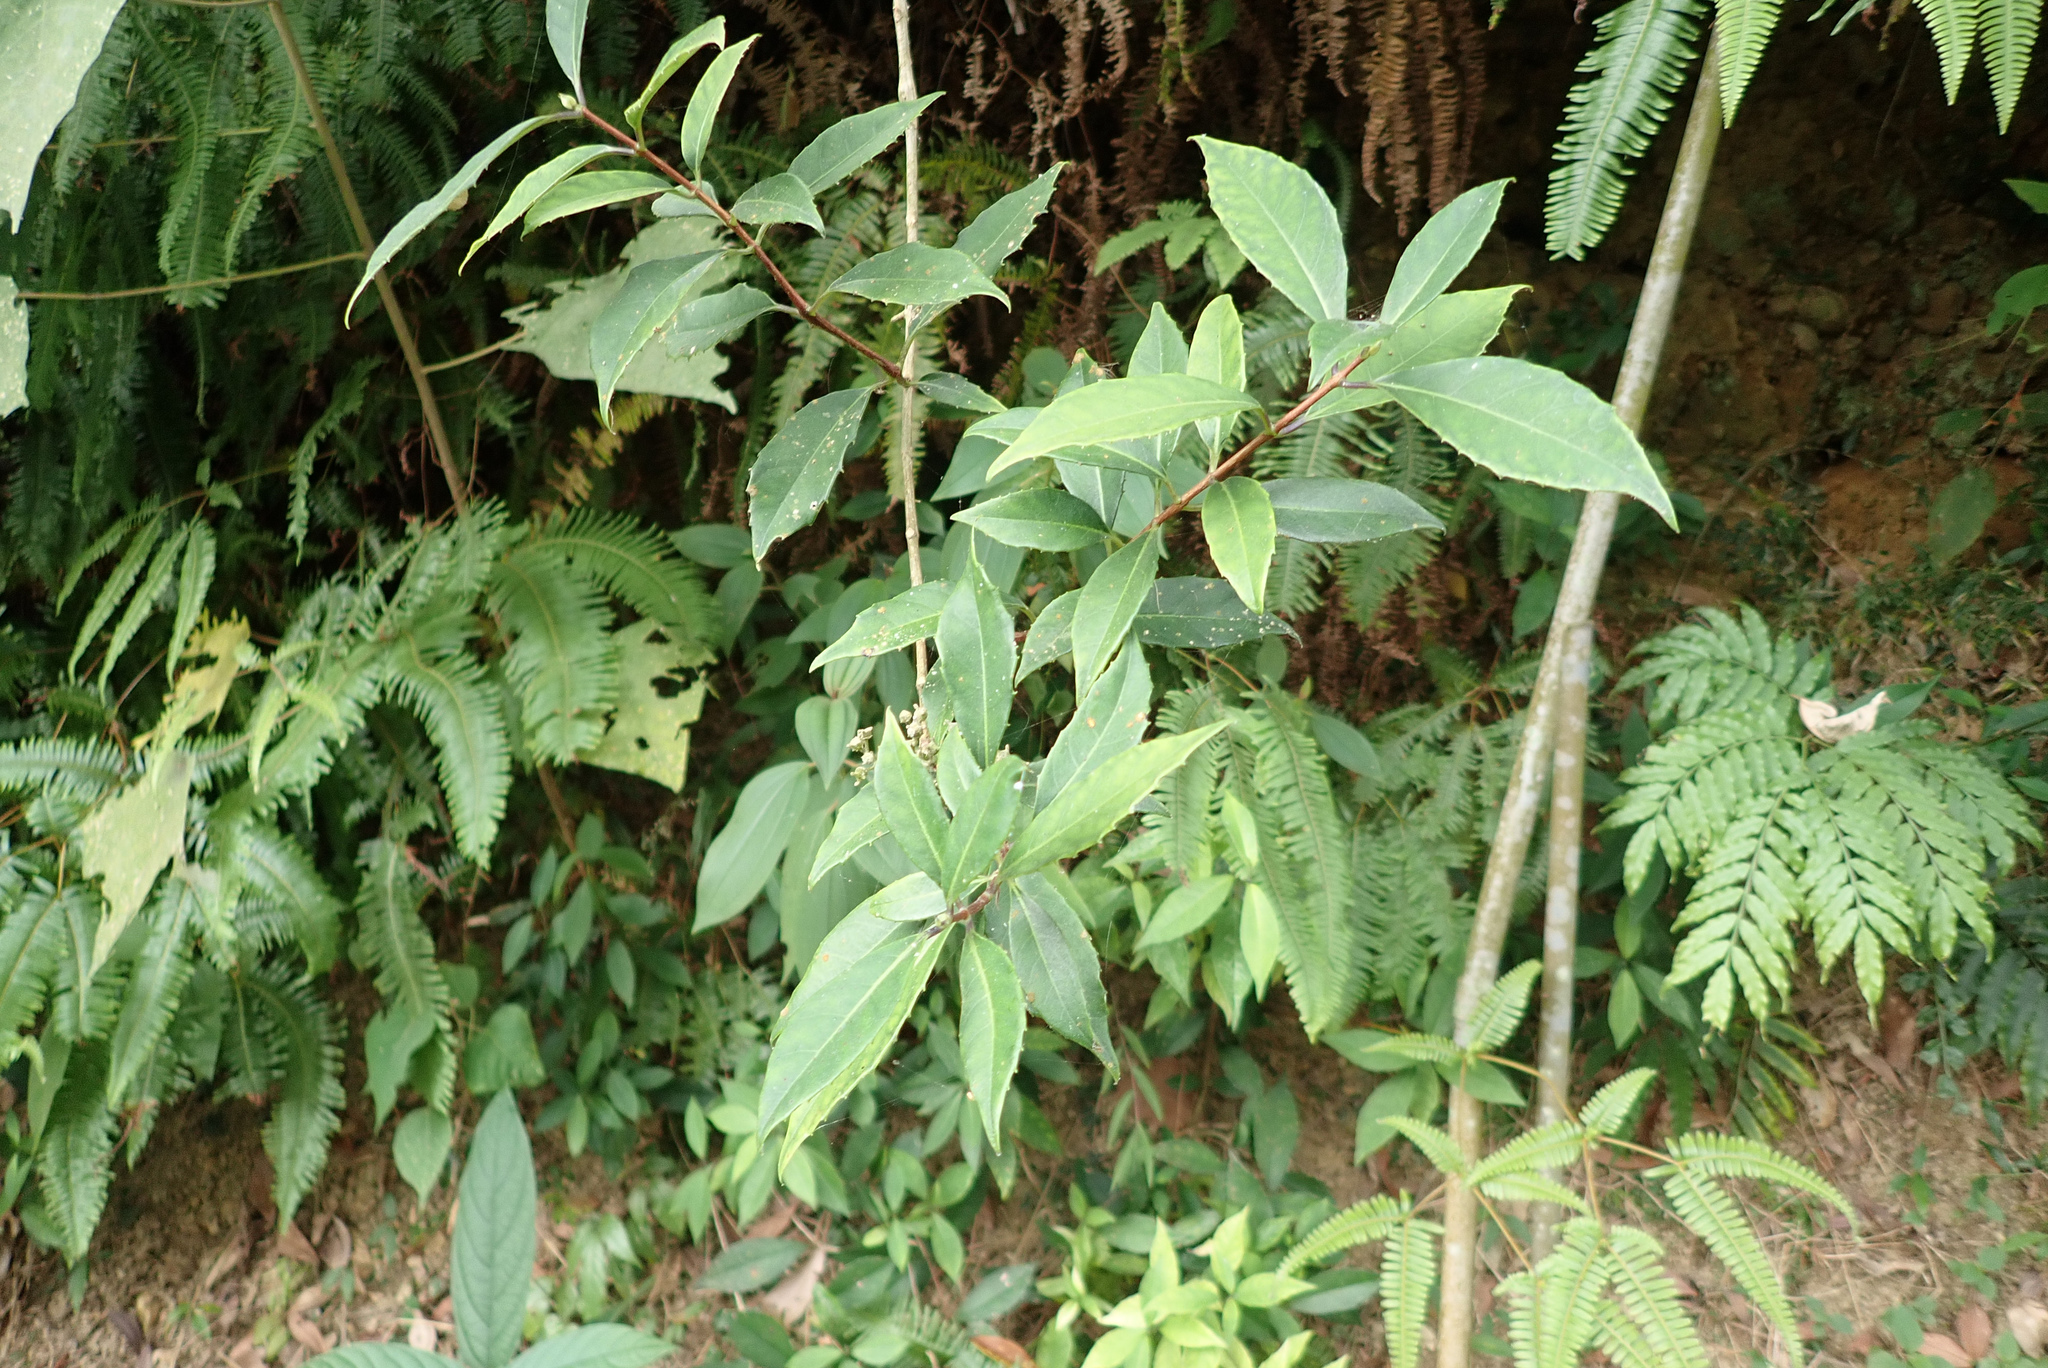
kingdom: Plantae
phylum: Tracheophyta
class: Magnoliopsida
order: Cornales
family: Hydrangeaceae
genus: Hydrangea
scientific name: Hydrangea chinensis
